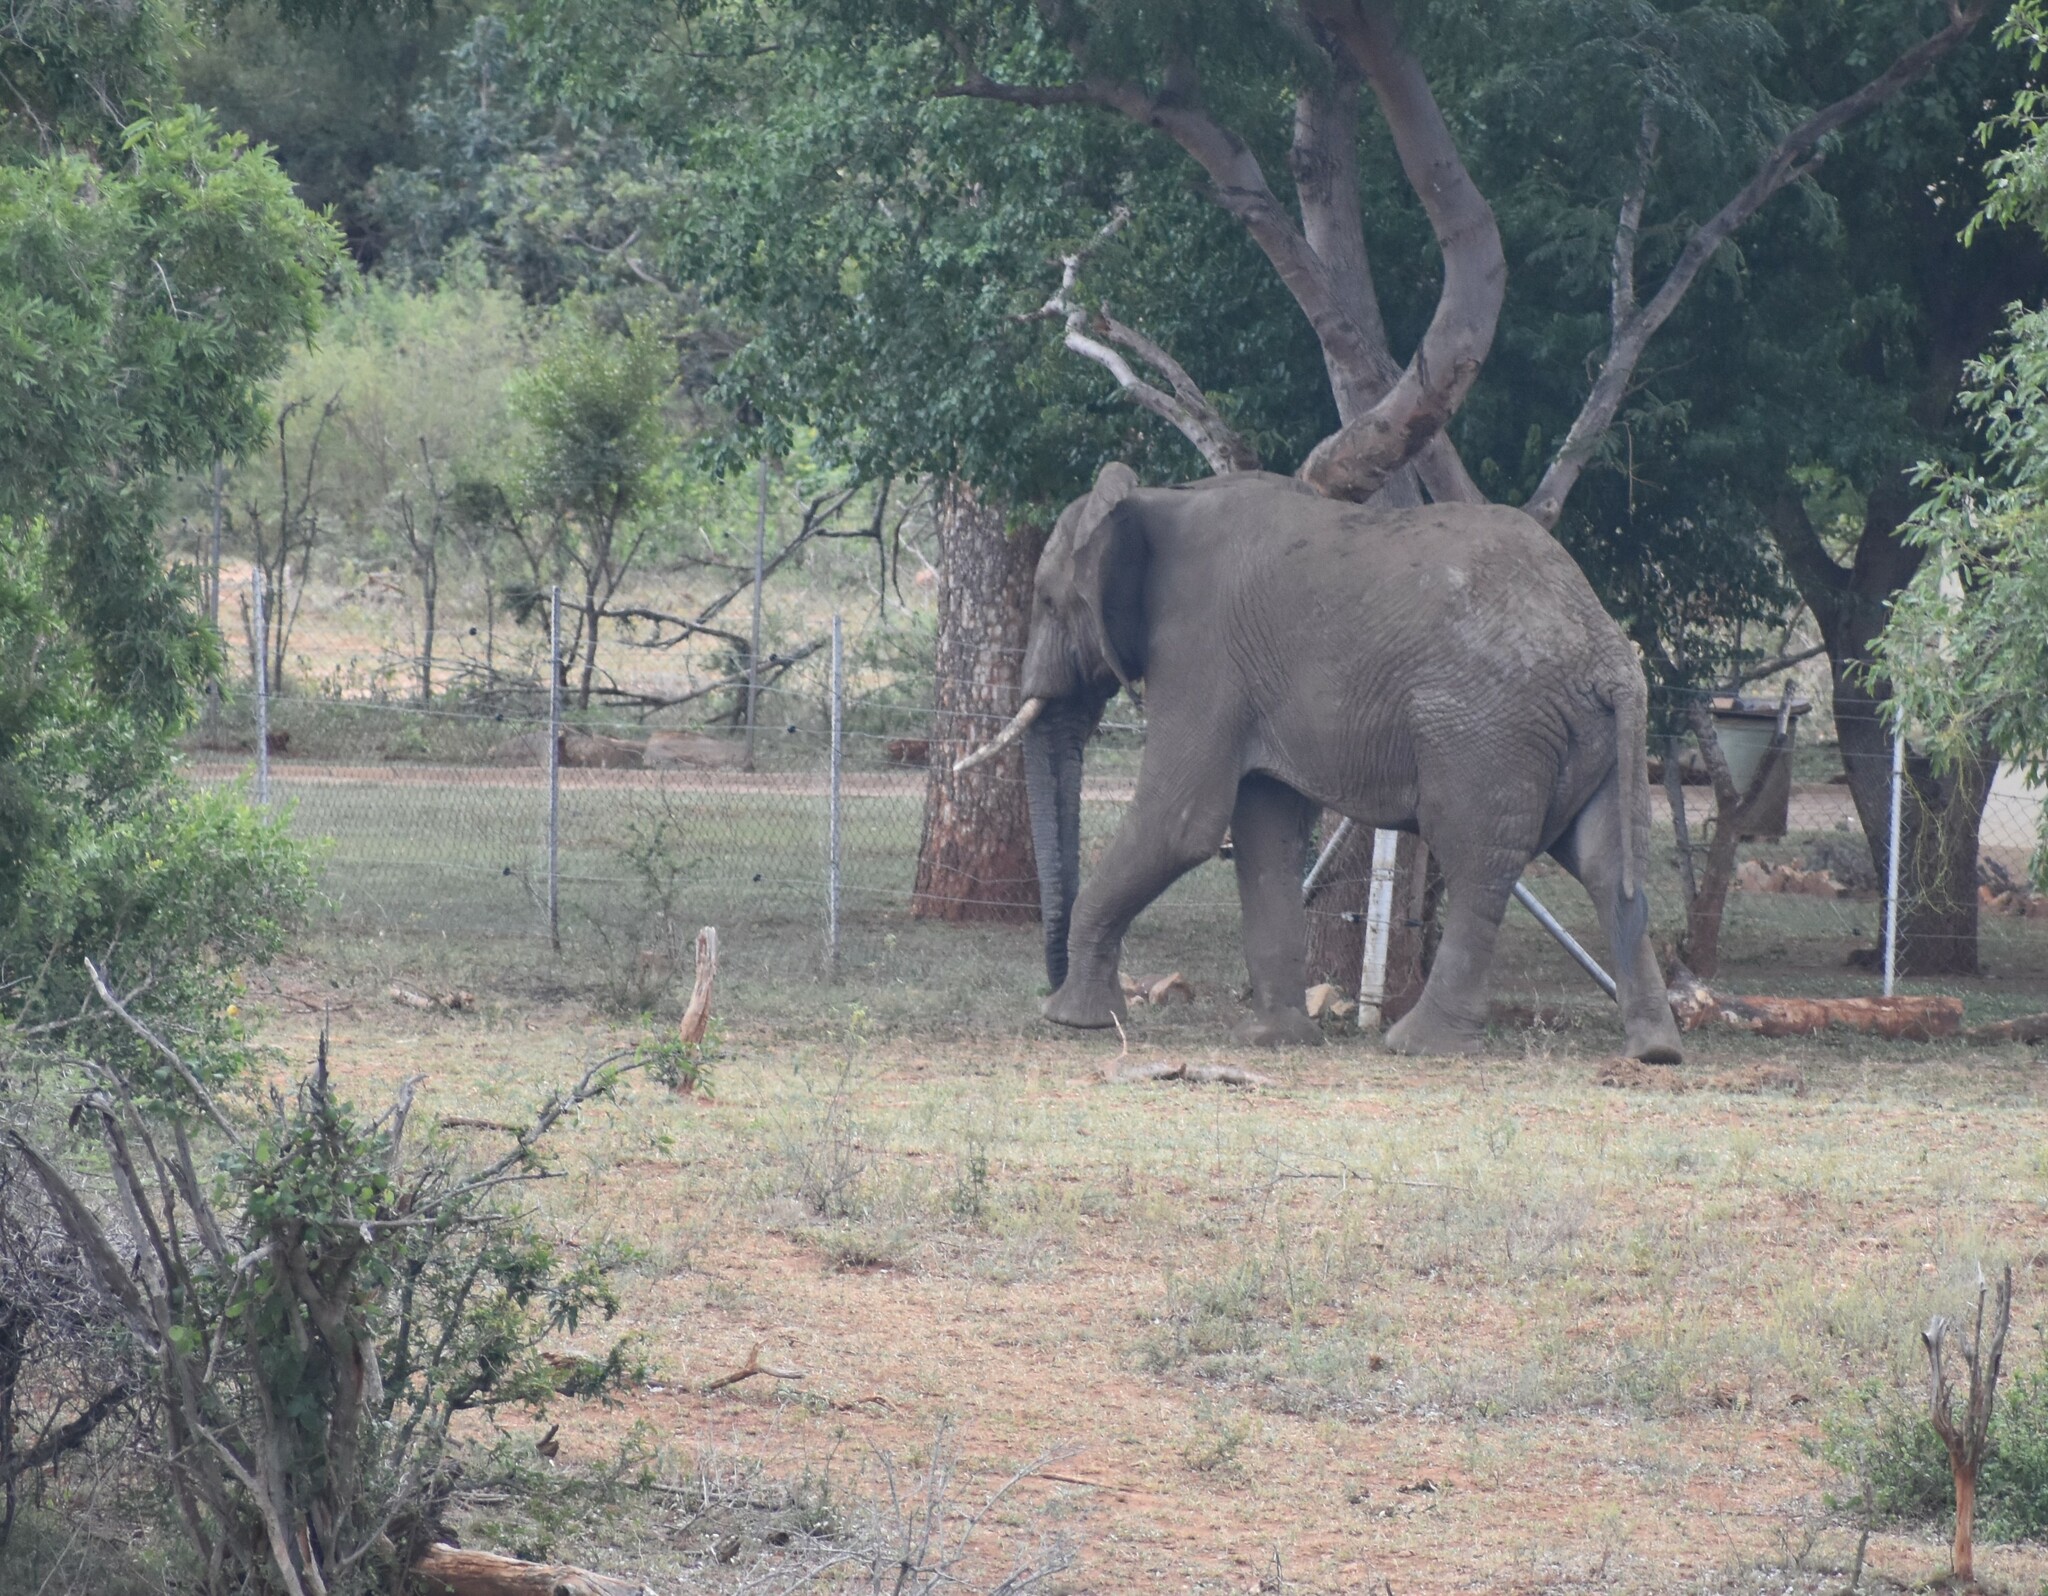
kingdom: Animalia
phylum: Chordata
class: Mammalia
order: Proboscidea
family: Elephantidae
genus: Loxodonta
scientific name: Loxodonta africana
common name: African elephant
